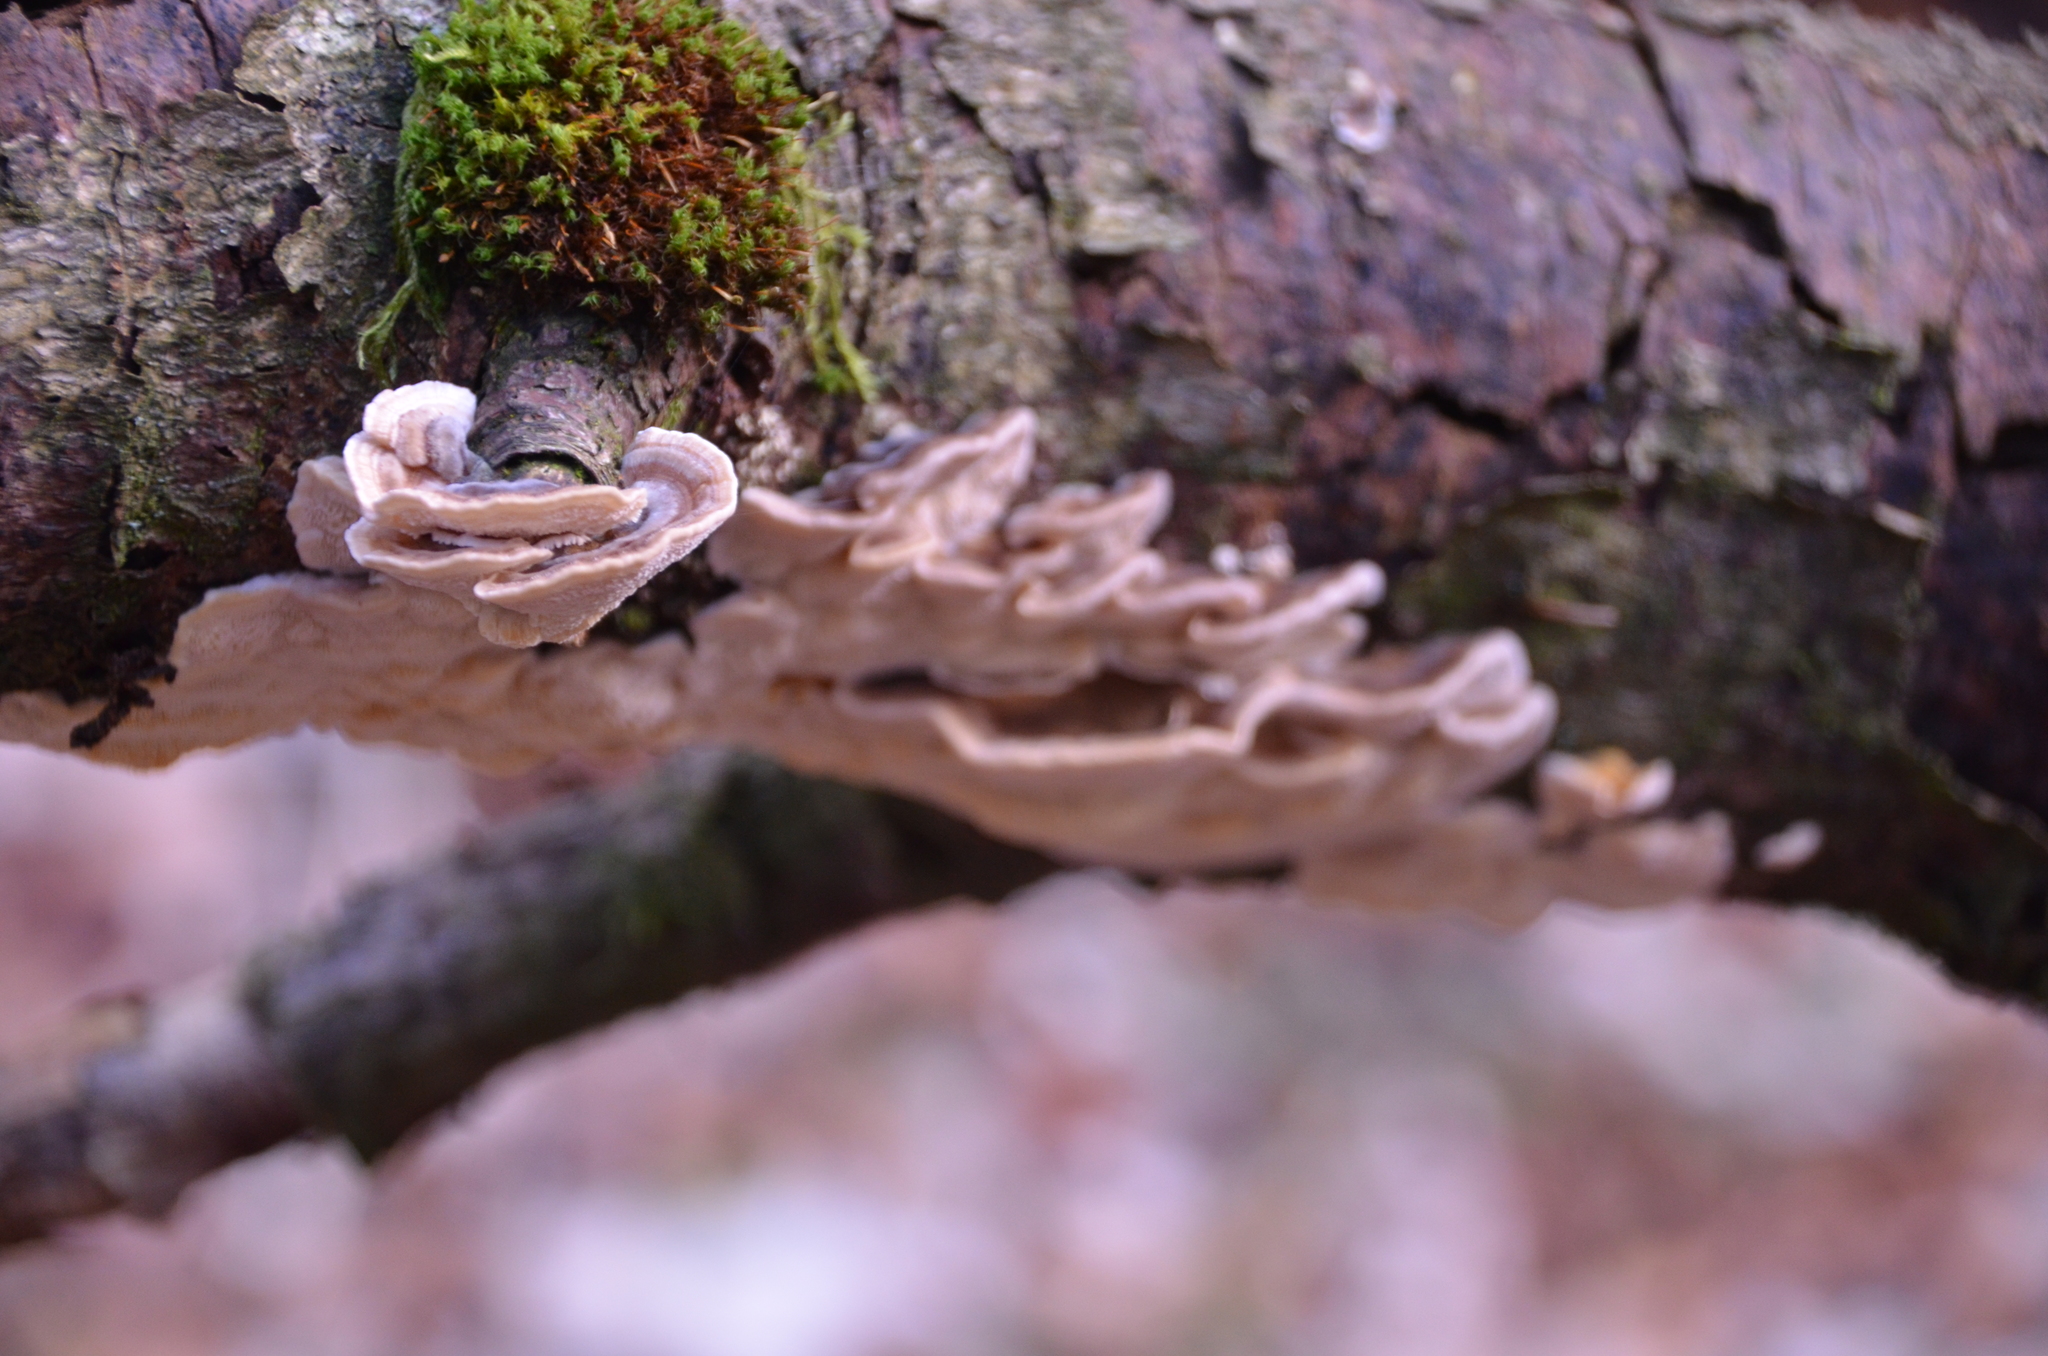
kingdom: Fungi
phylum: Basidiomycota
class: Agaricomycetes
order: Polyporales
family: Polyporaceae
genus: Trametes
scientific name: Trametes versicolor
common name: Turkeytail
